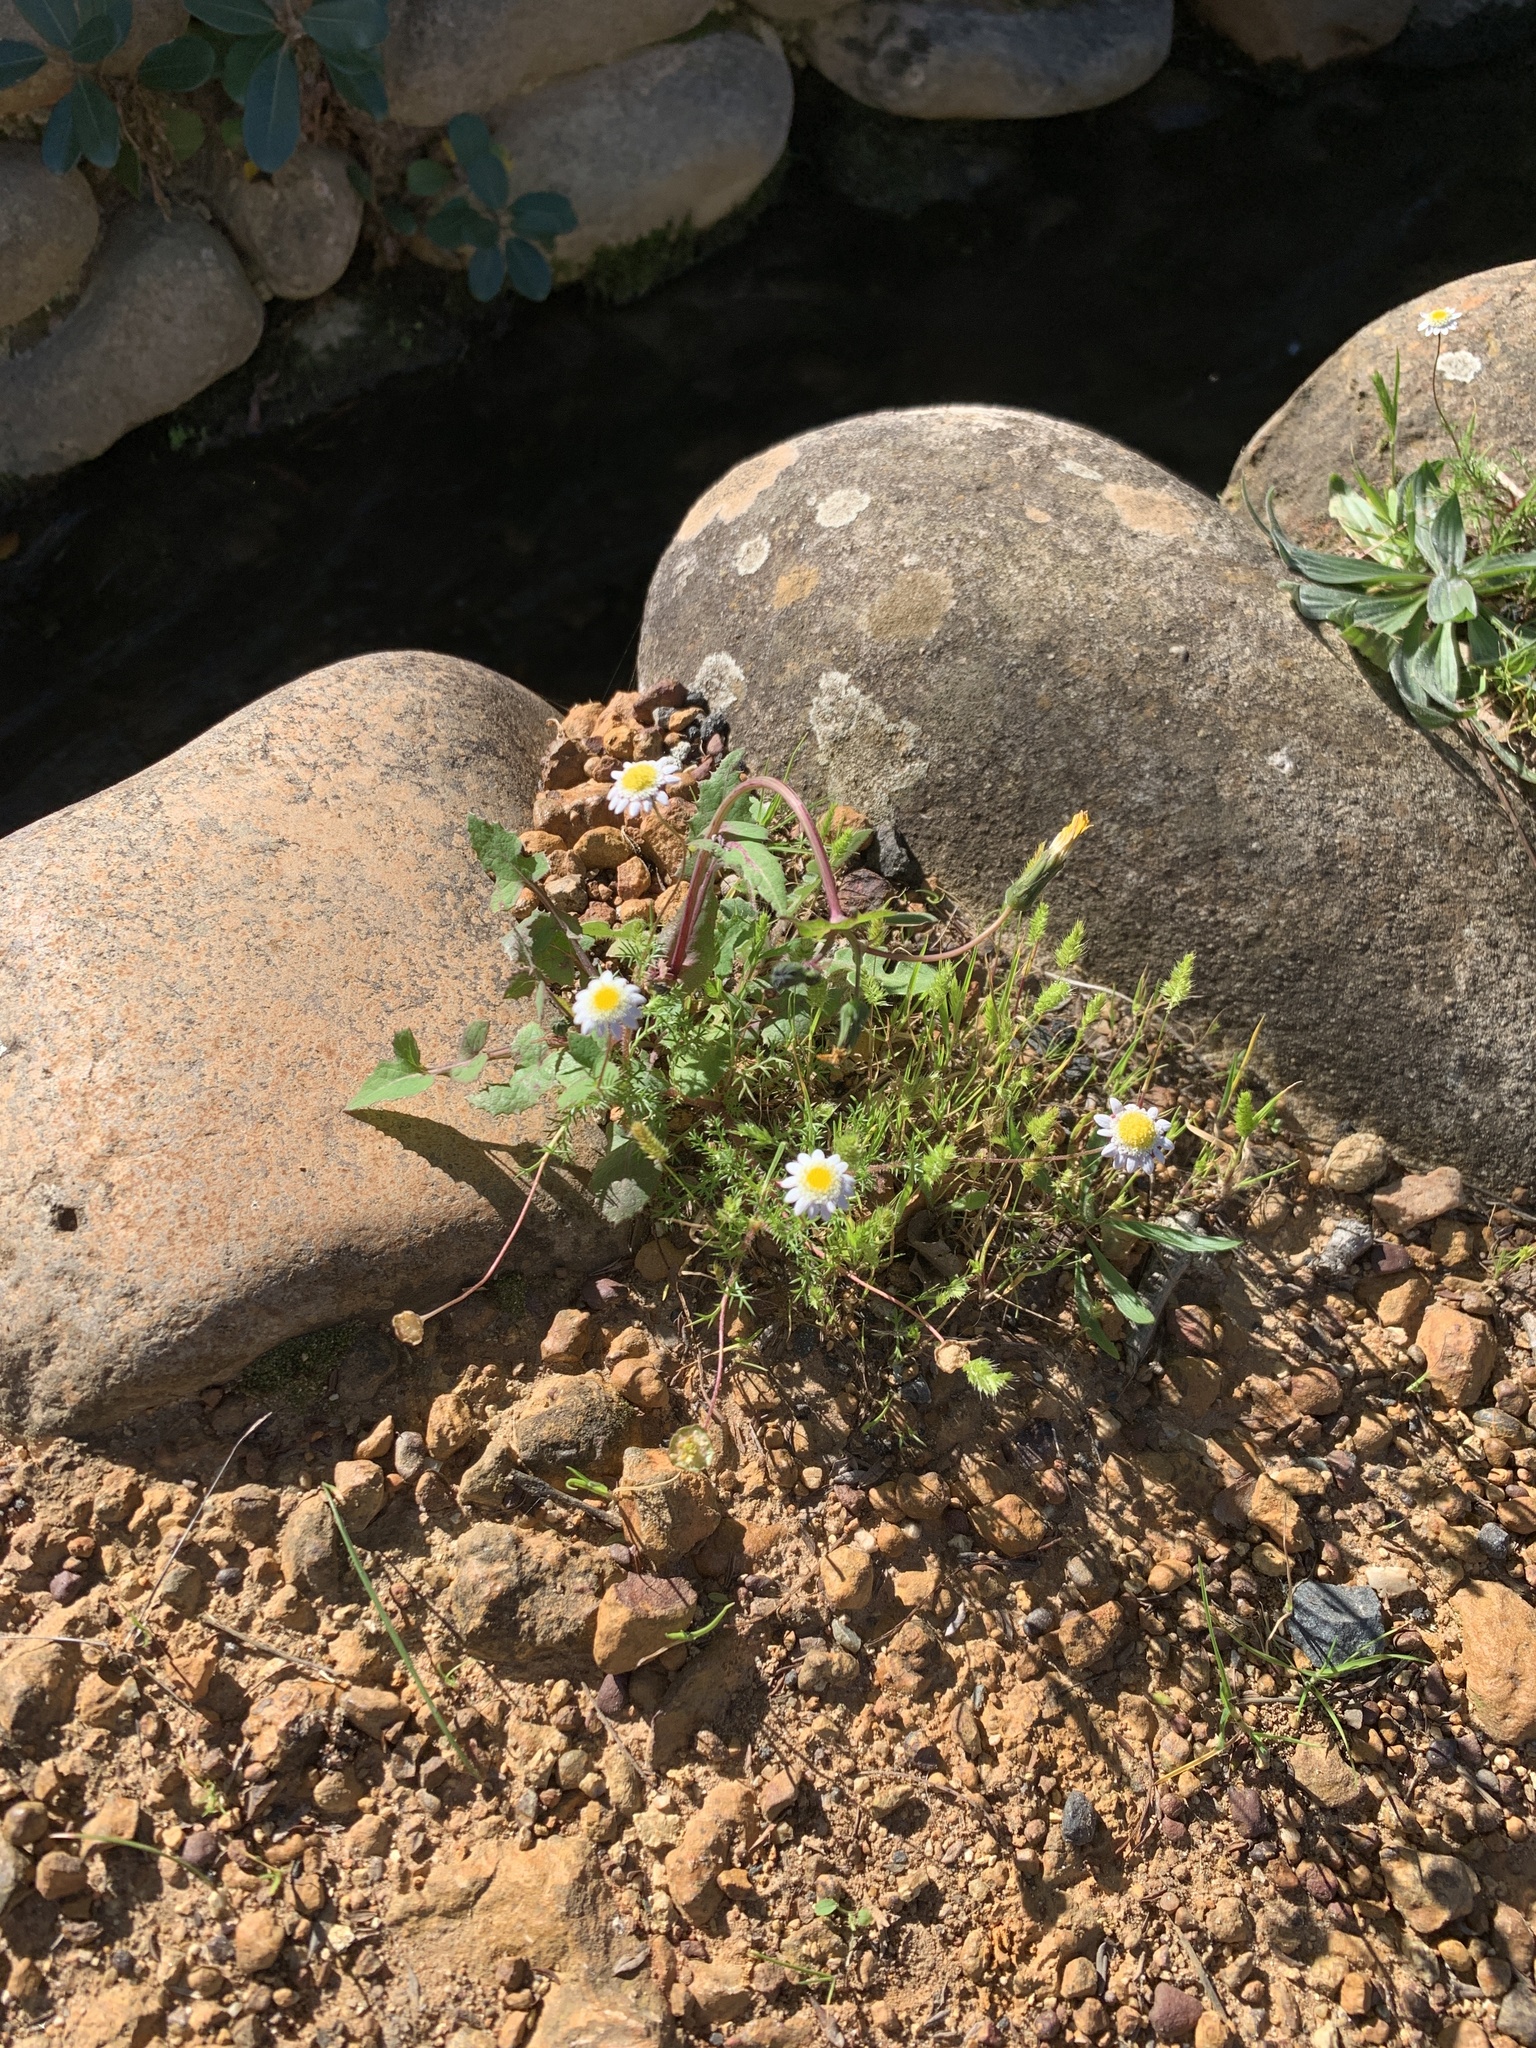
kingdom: Plantae
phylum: Tracheophyta
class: Magnoliopsida
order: Asterales
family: Asteraceae
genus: Cotula
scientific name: Cotula turbinata
